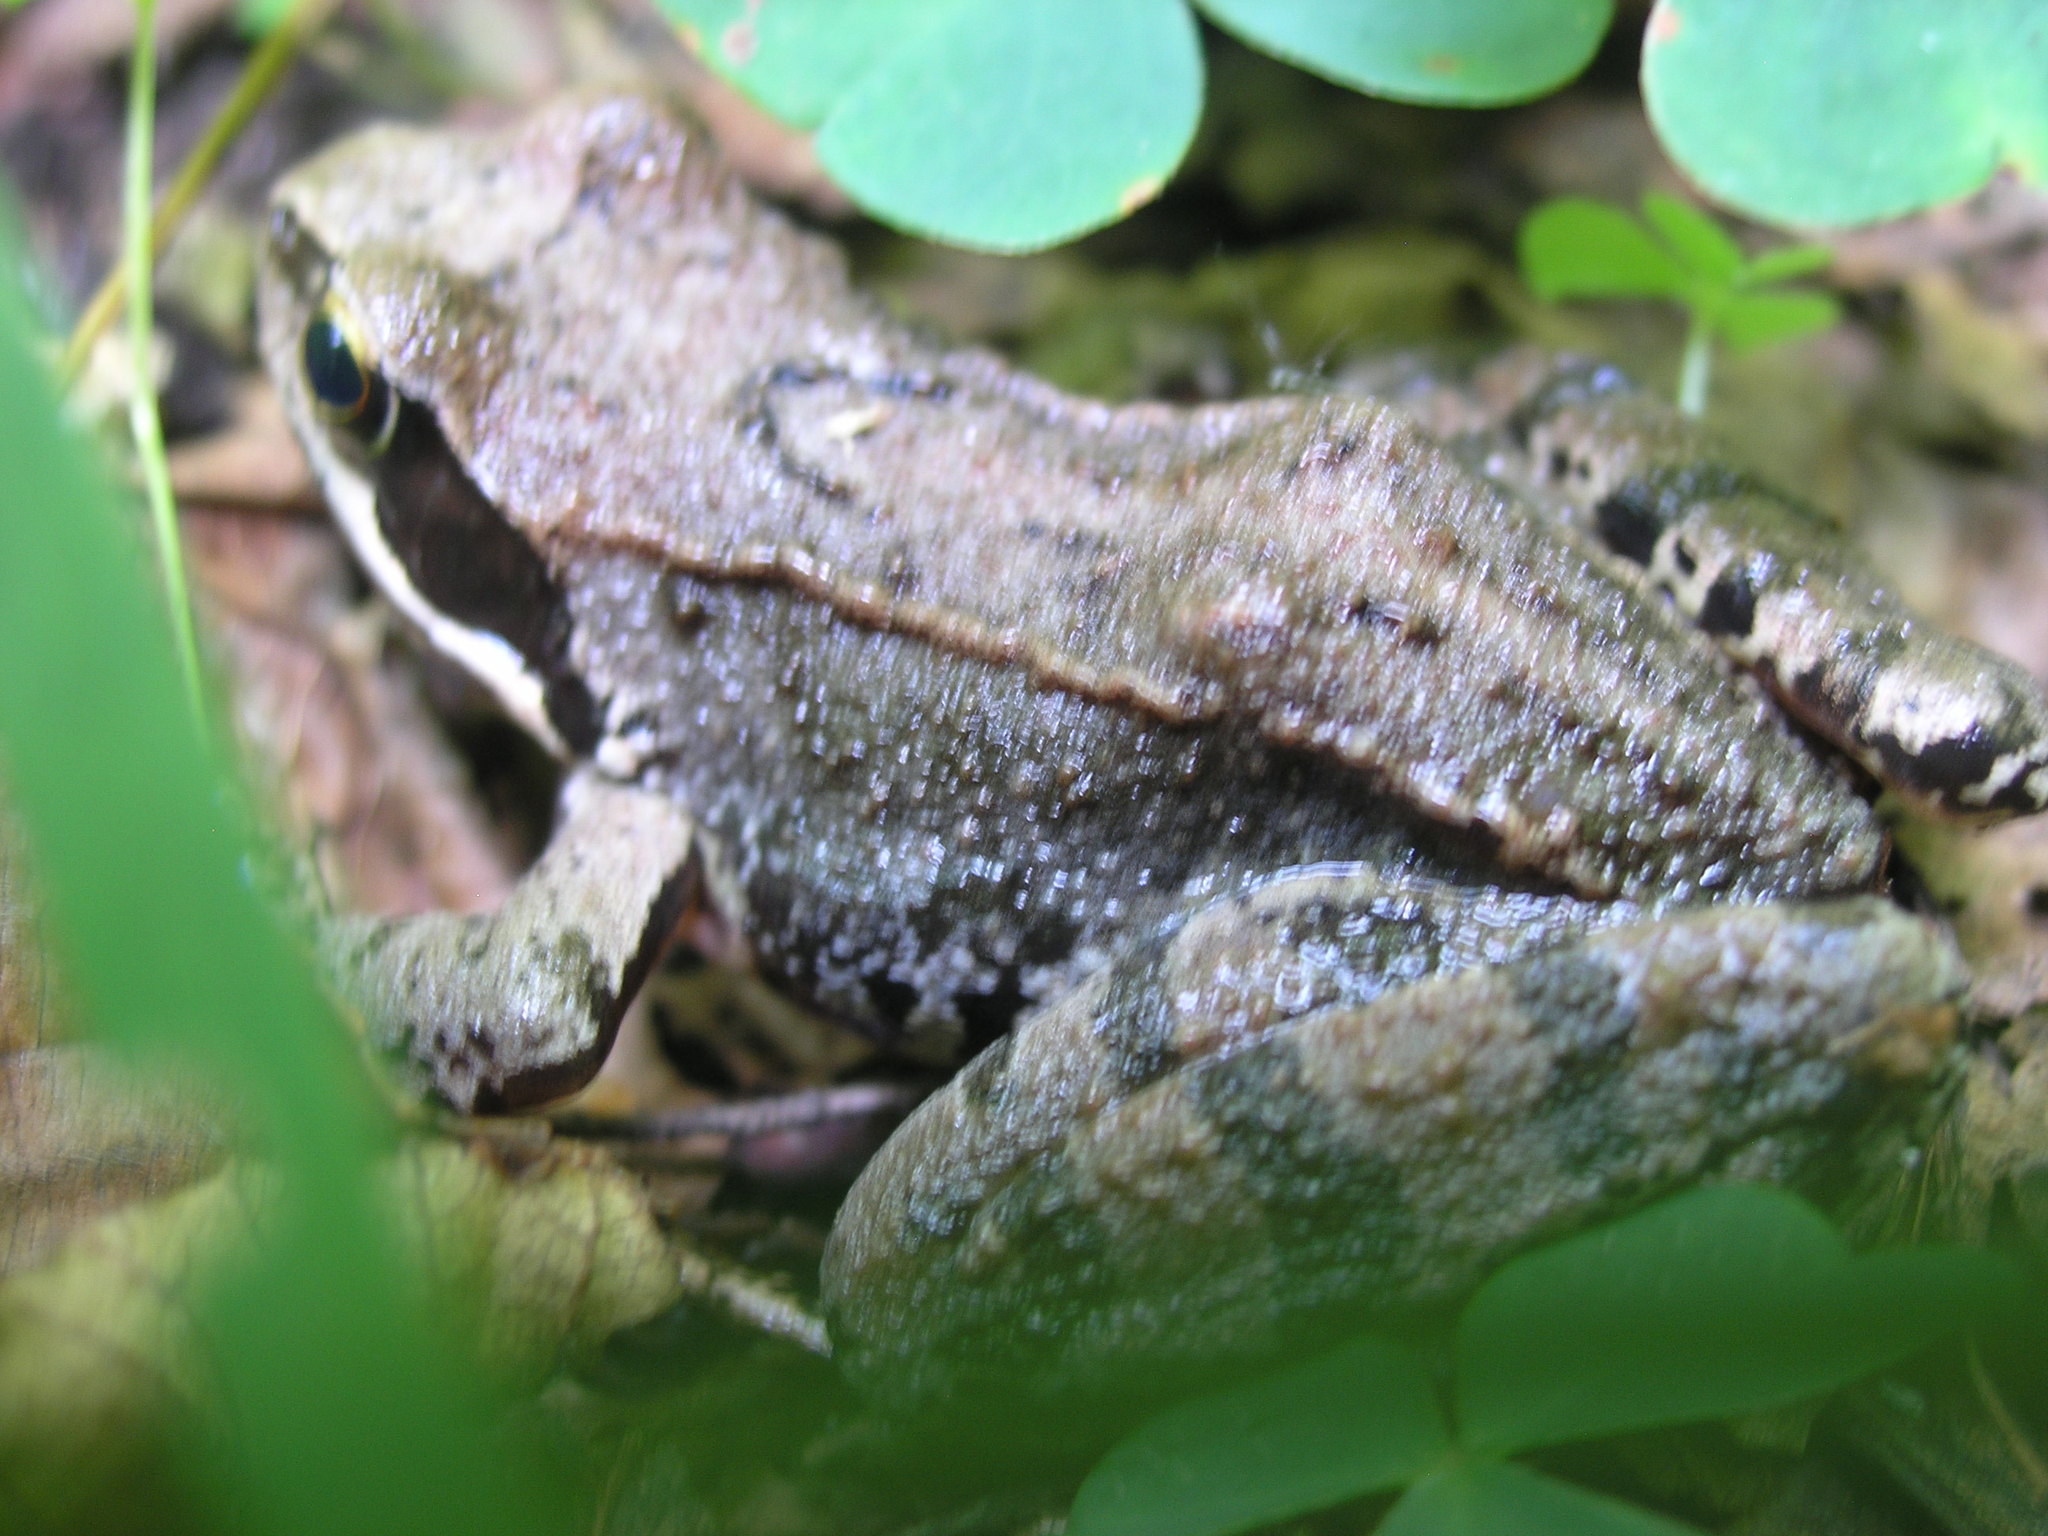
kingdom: Animalia
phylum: Chordata
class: Amphibia
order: Anura
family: Ranidae
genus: Rana
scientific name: Rana temporaria
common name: Common frog
